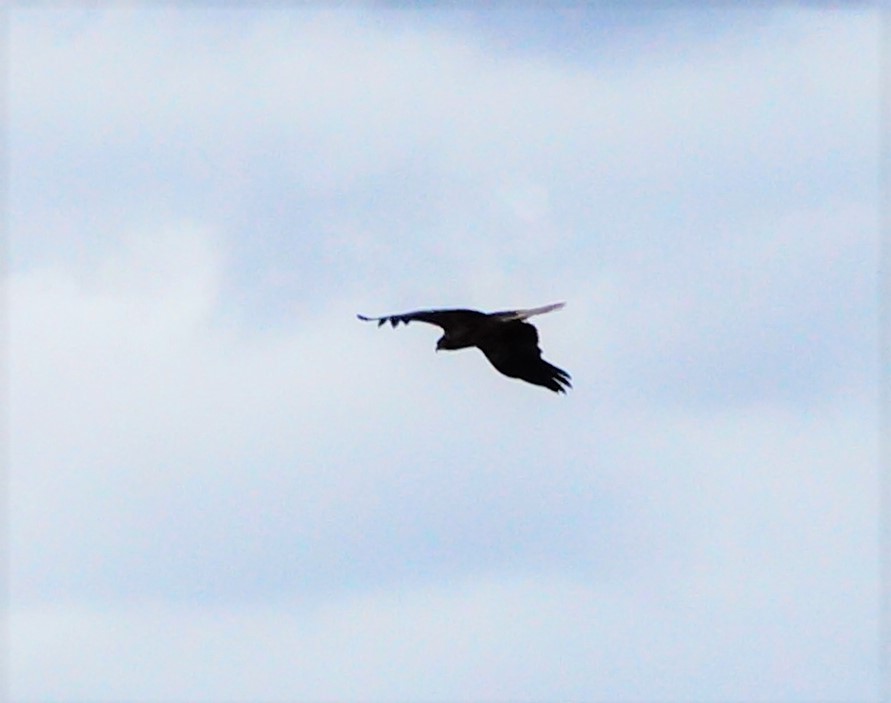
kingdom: Animalia
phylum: Chordata
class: Aves
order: Accipitriformes
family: Accipitridae
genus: Circus
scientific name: Circus approximans
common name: Swamp harrier
